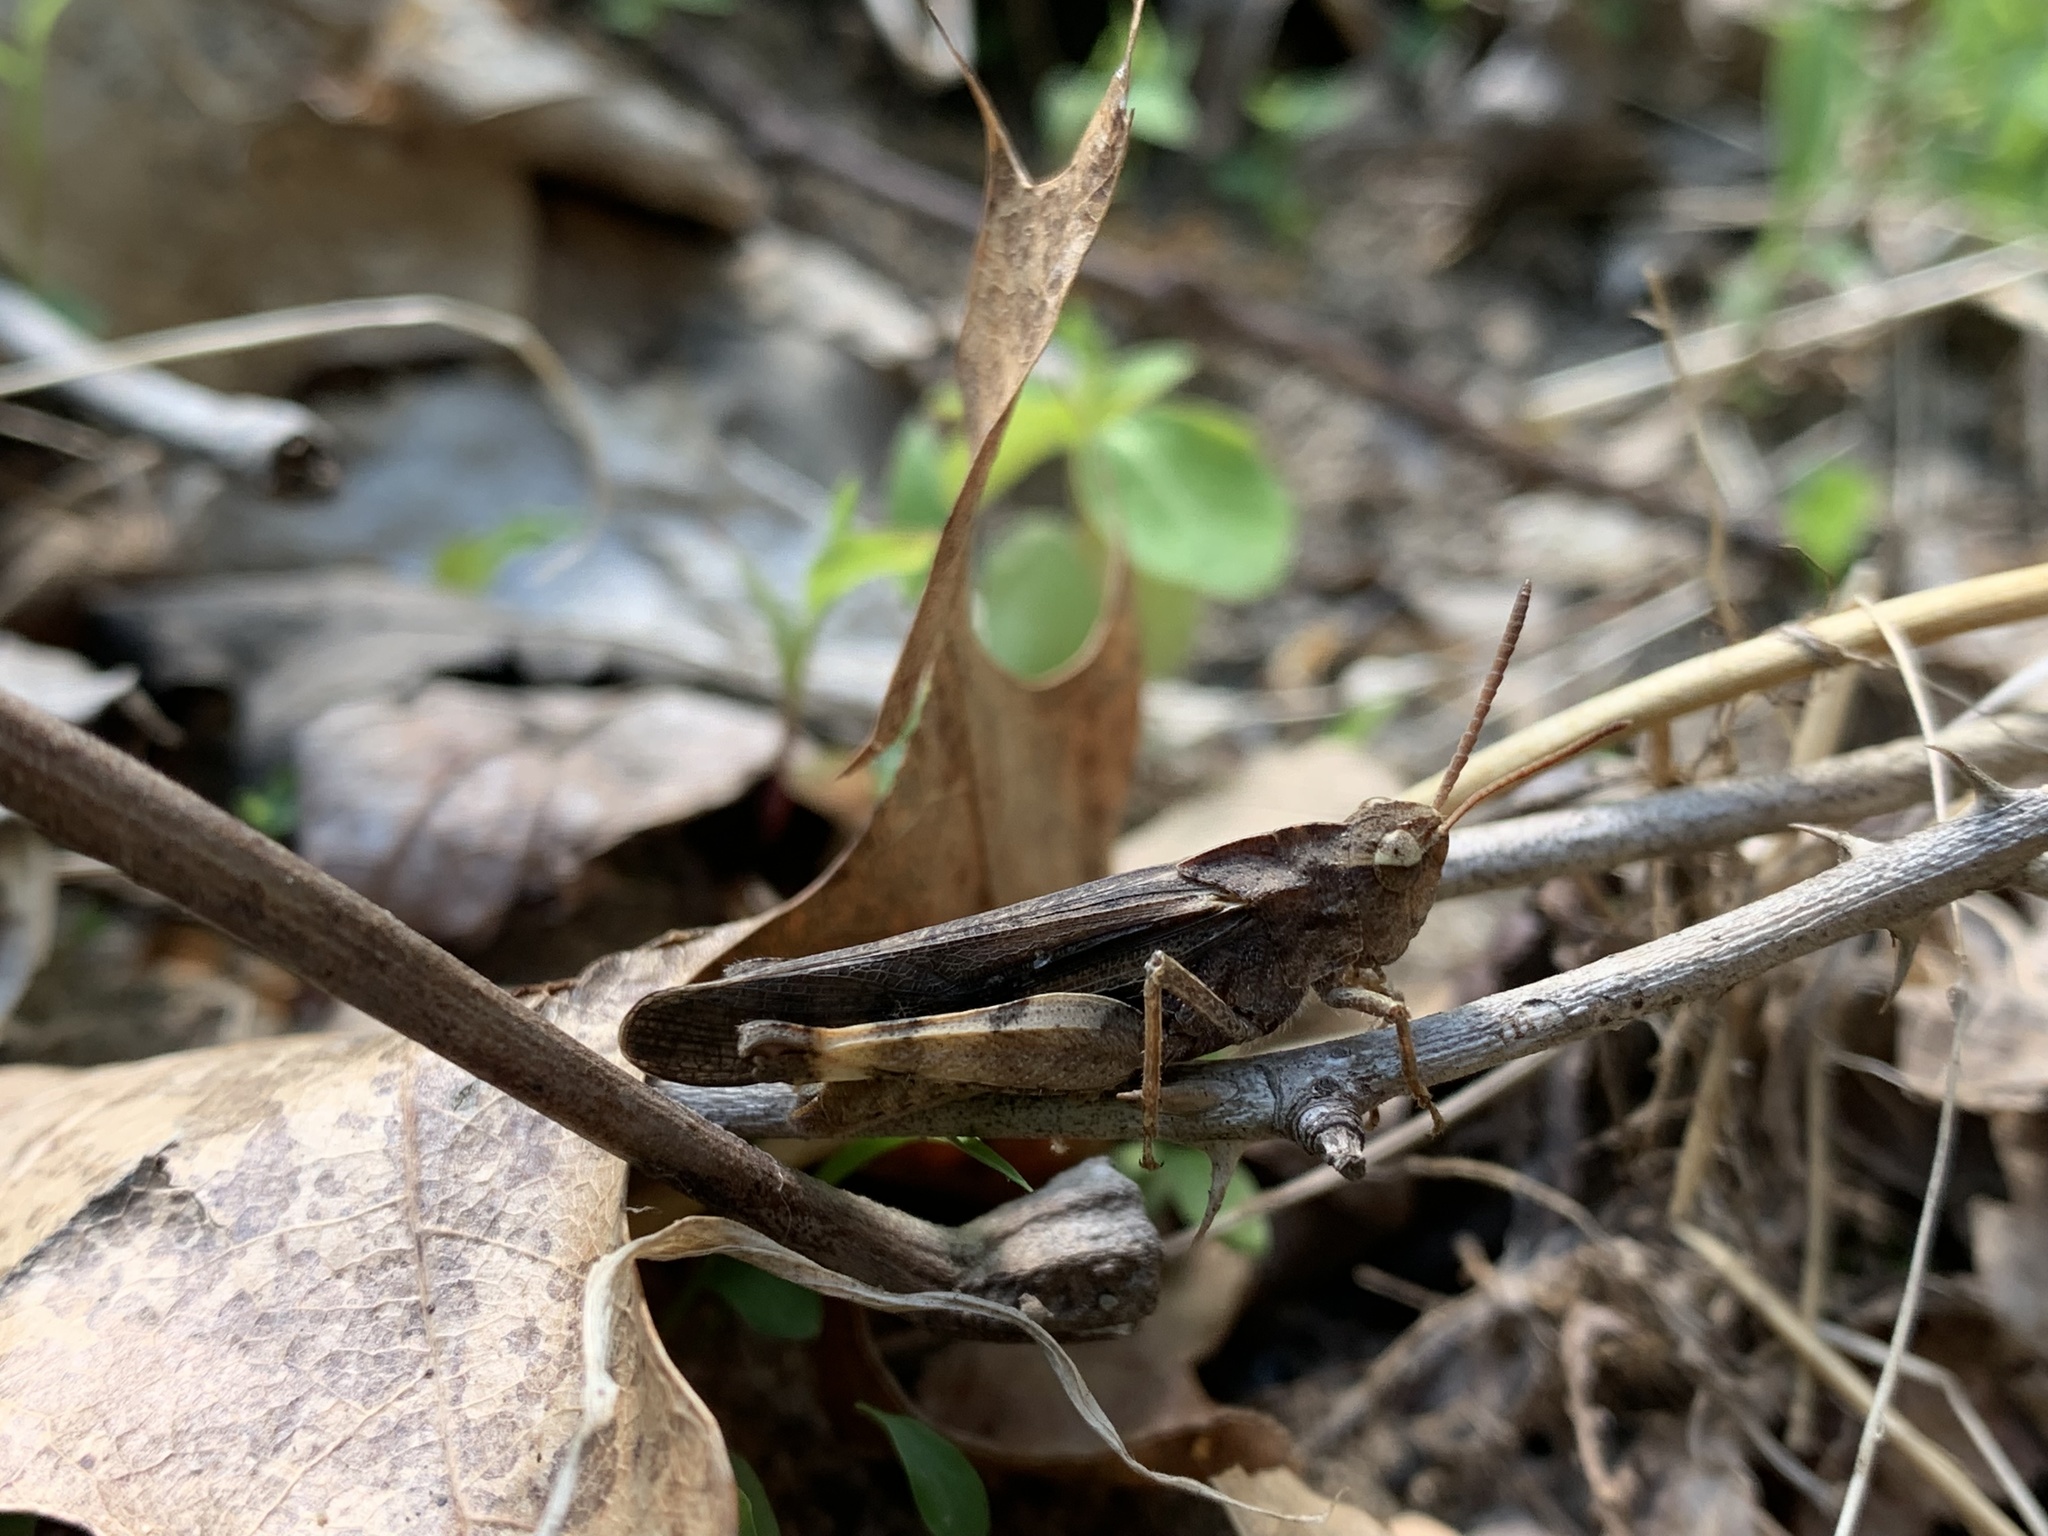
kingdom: Animalia
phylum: Arthropoda
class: Insecta
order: Orthoptera
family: Acrididae
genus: Chortophaga
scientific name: Chortophaga viridifasciata
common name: Green-striped grasshopper
